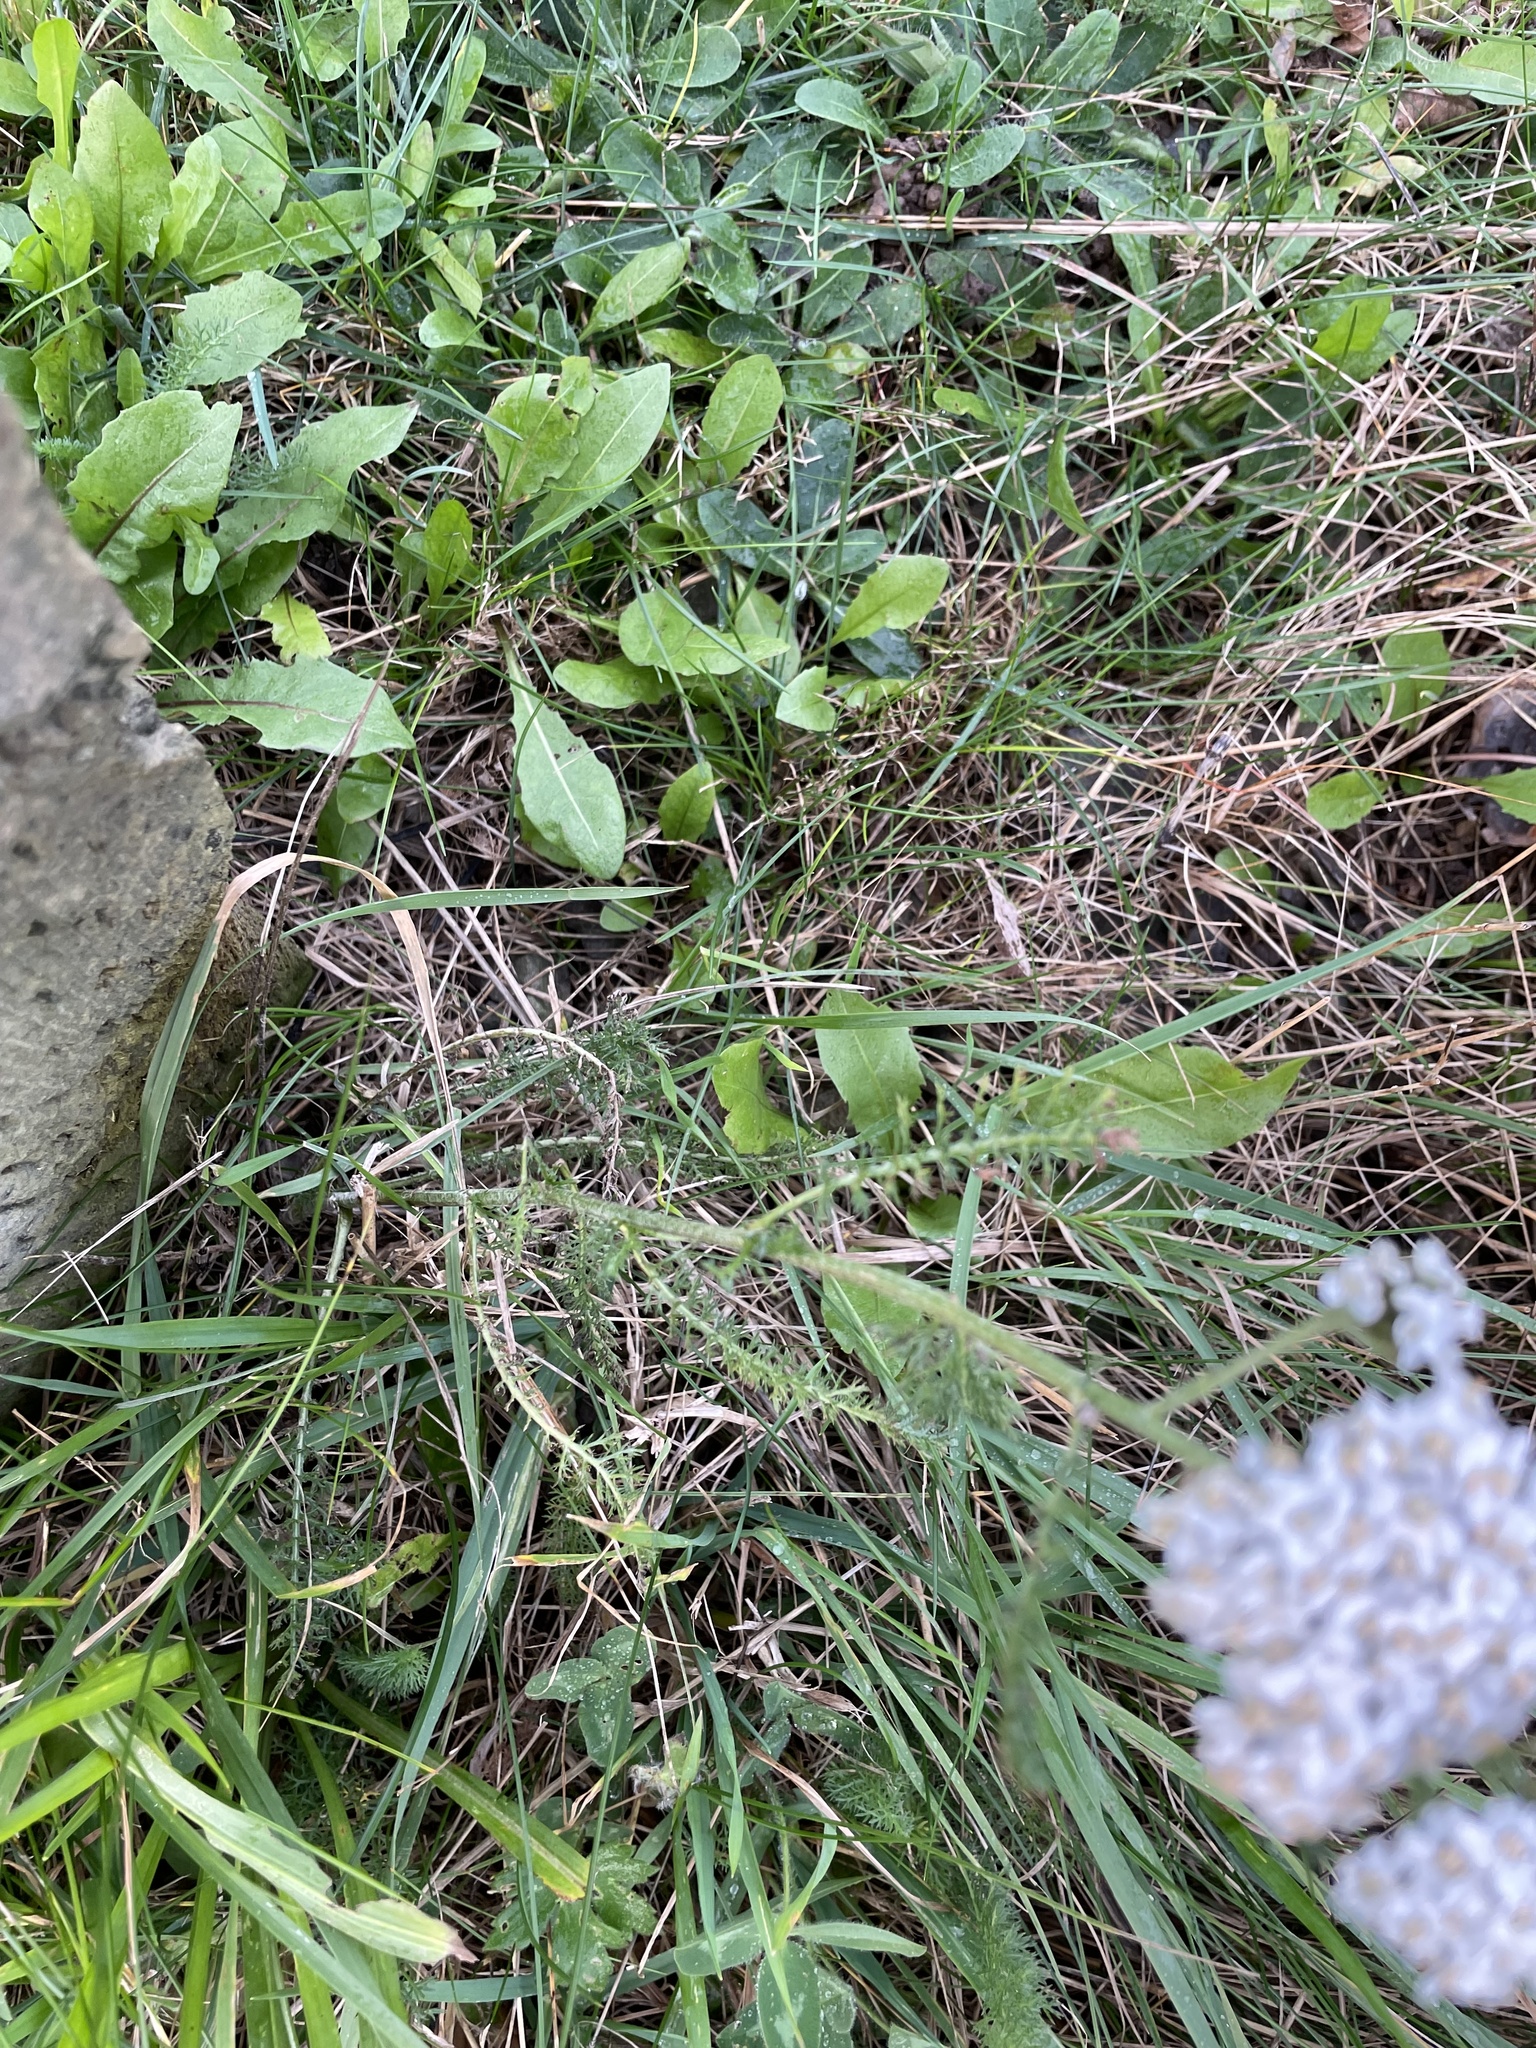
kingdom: Plantae
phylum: Tracheophyta
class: Magnoliopsida
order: Asterales
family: Asteraceae
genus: Achillea
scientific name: Achillea millefolium
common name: Yarrow
